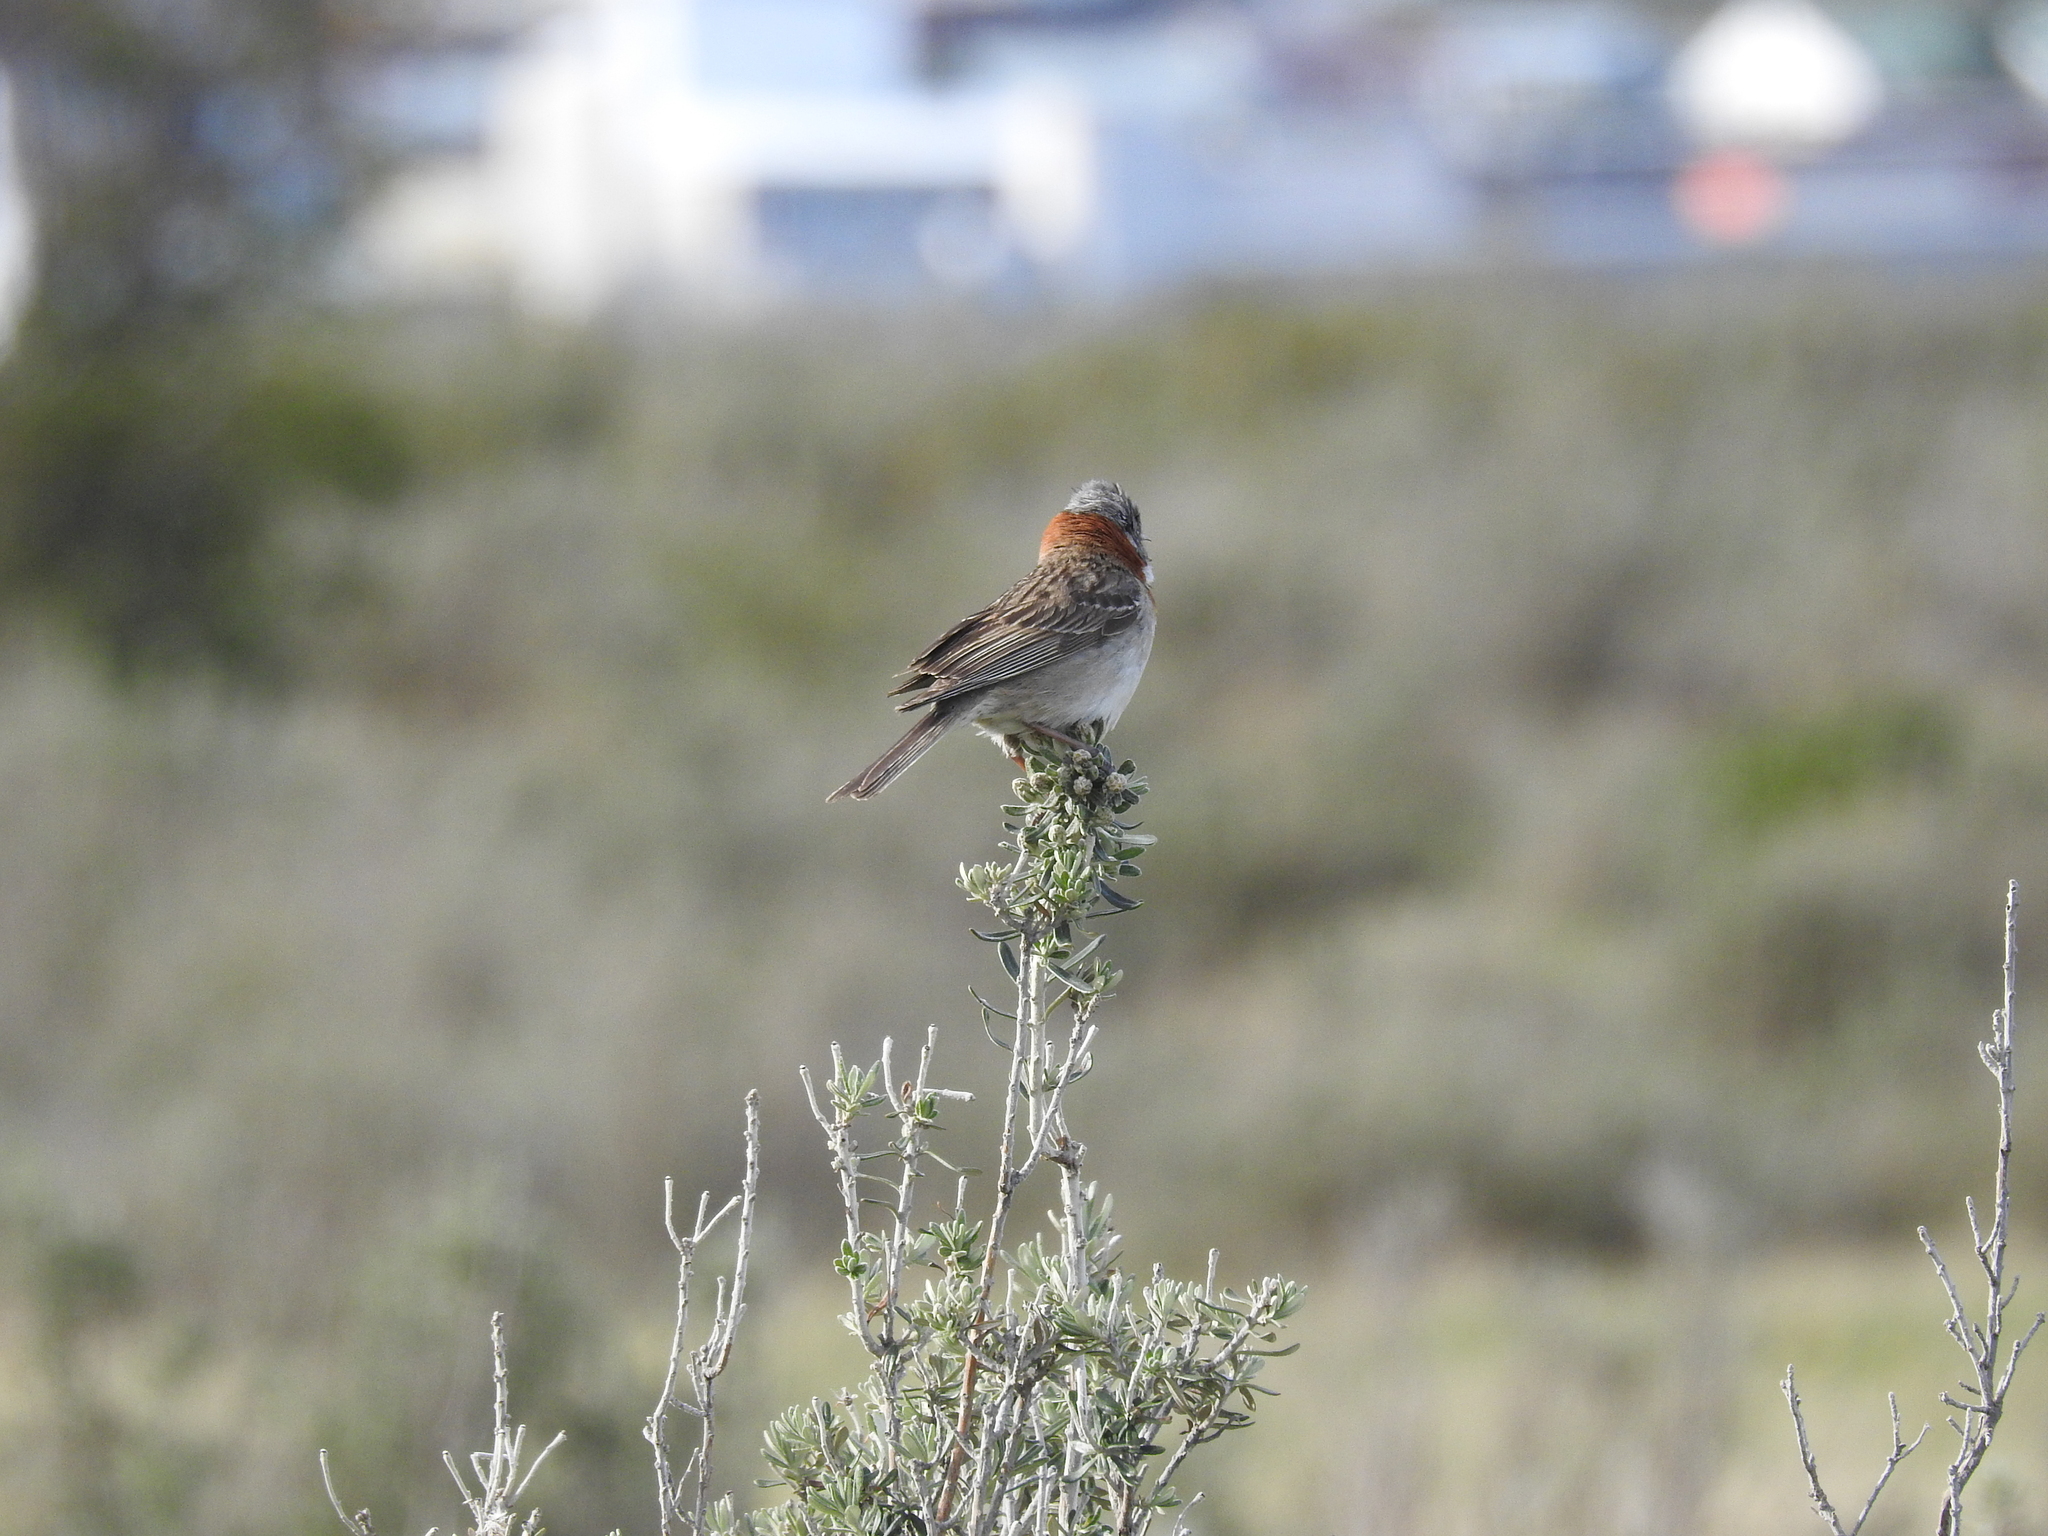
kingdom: Animalia
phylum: Chordata
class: Aves
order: Passeriformes
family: Passerellidae
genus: Zonotrichia
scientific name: Zonotrichia capensis
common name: Rufous-collared sparrow
